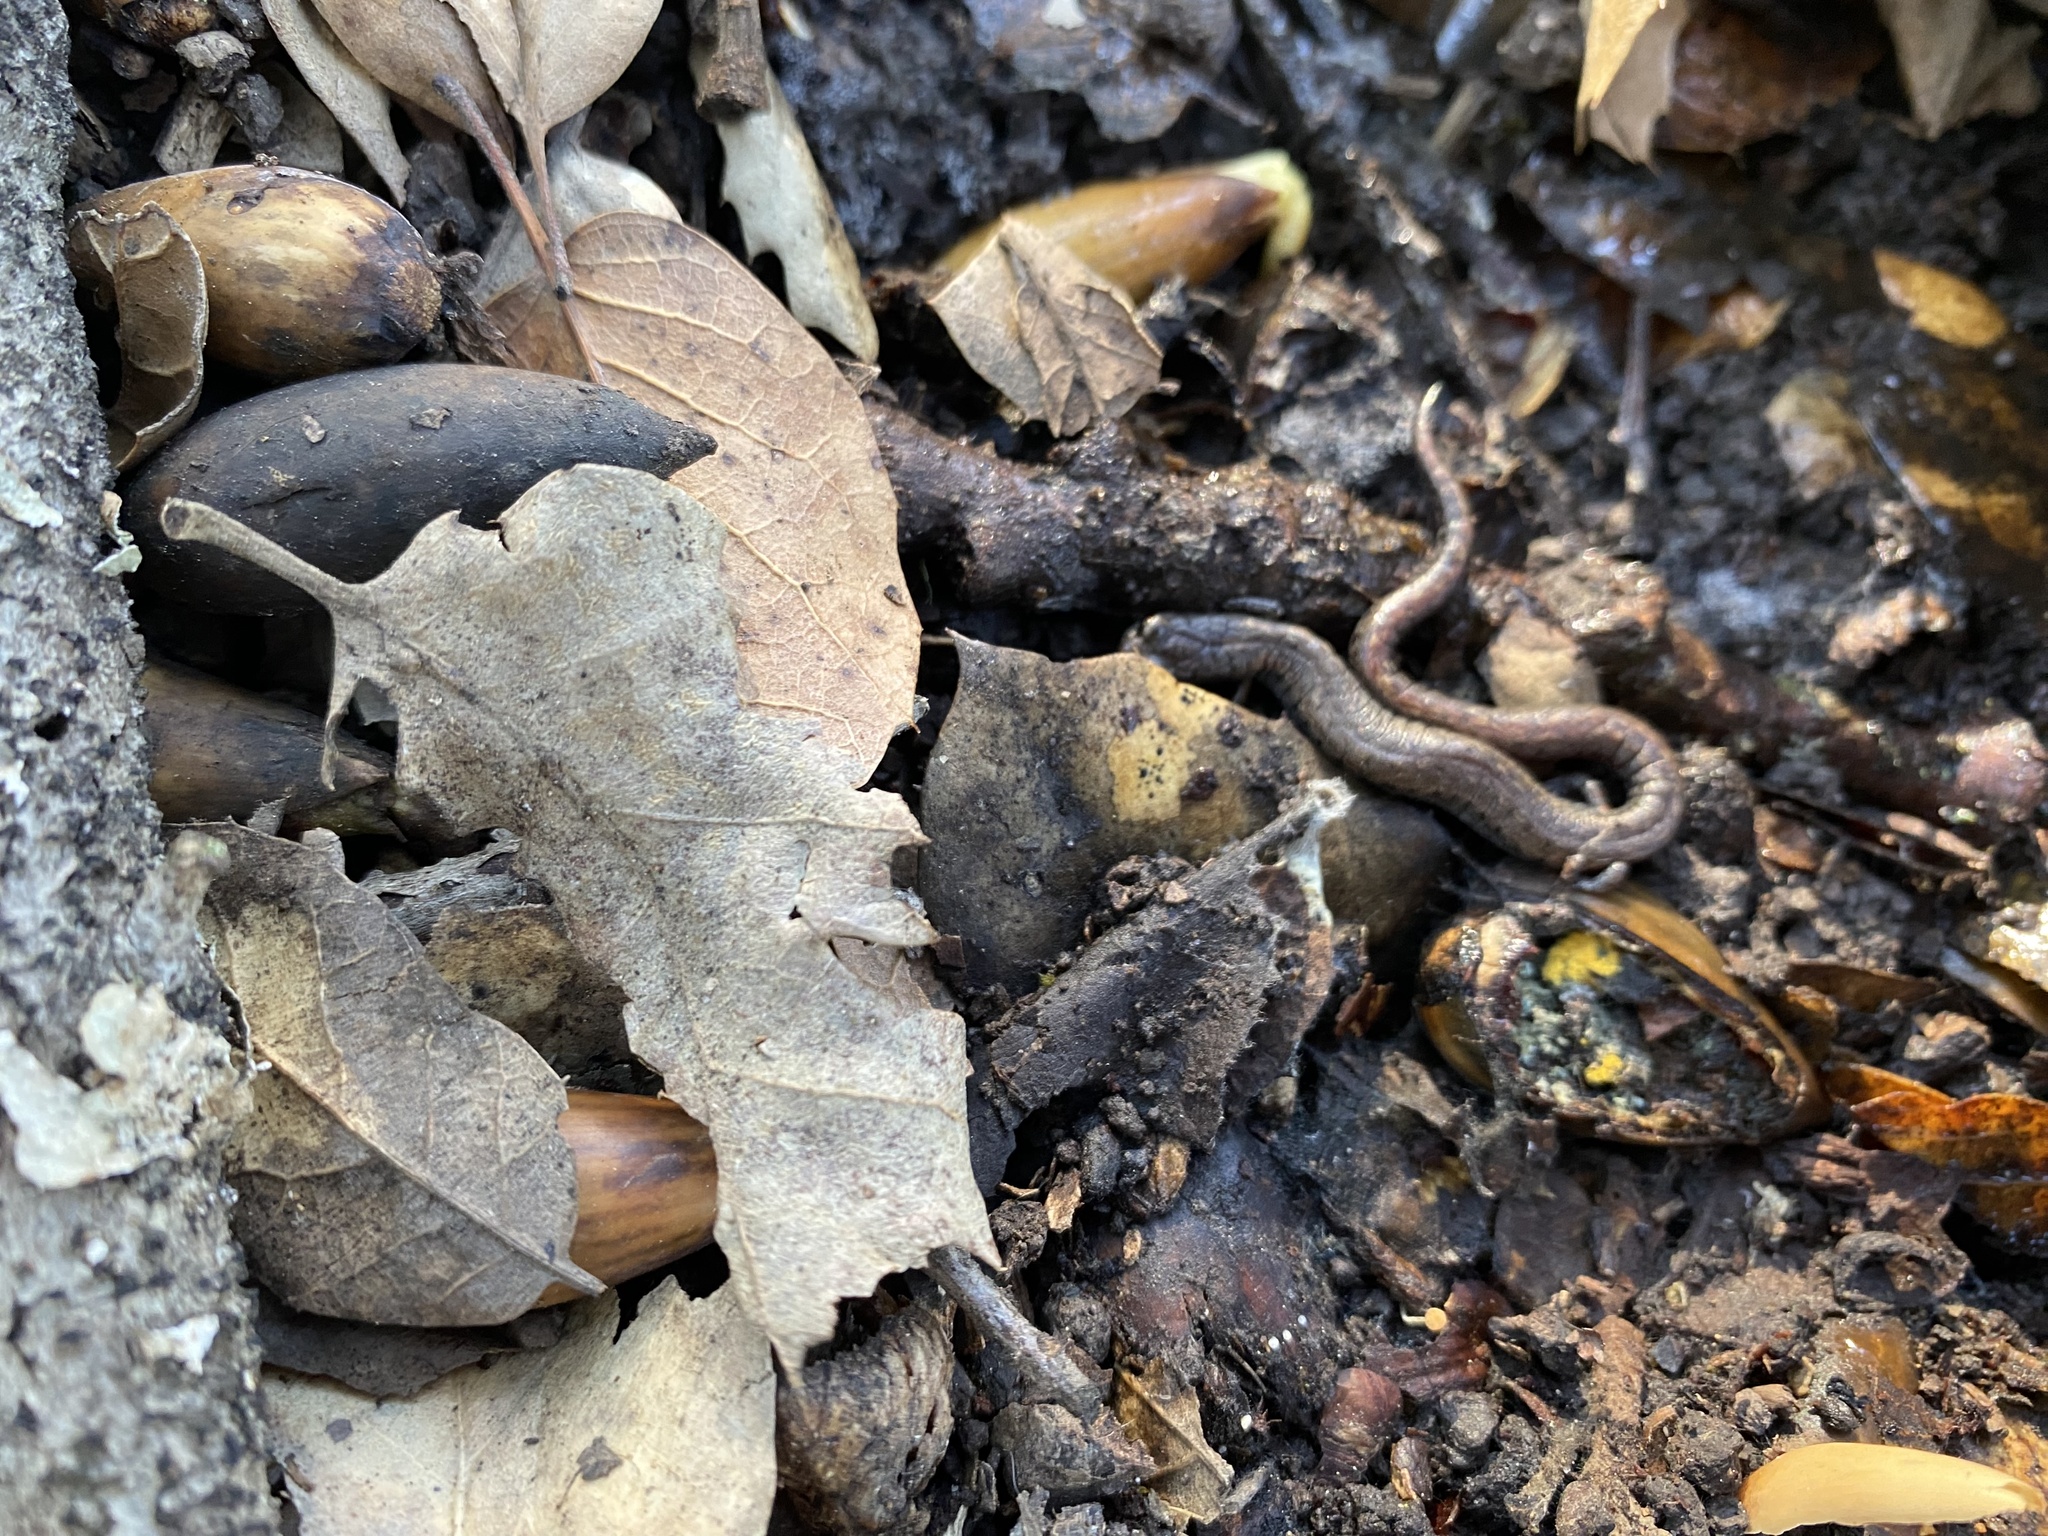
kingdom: Animalia
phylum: Chordata
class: Amphibia
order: Caudata
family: Plethodontidae
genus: Batrachoseps
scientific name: Batrachoseps attenuatus
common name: California slender salamander
